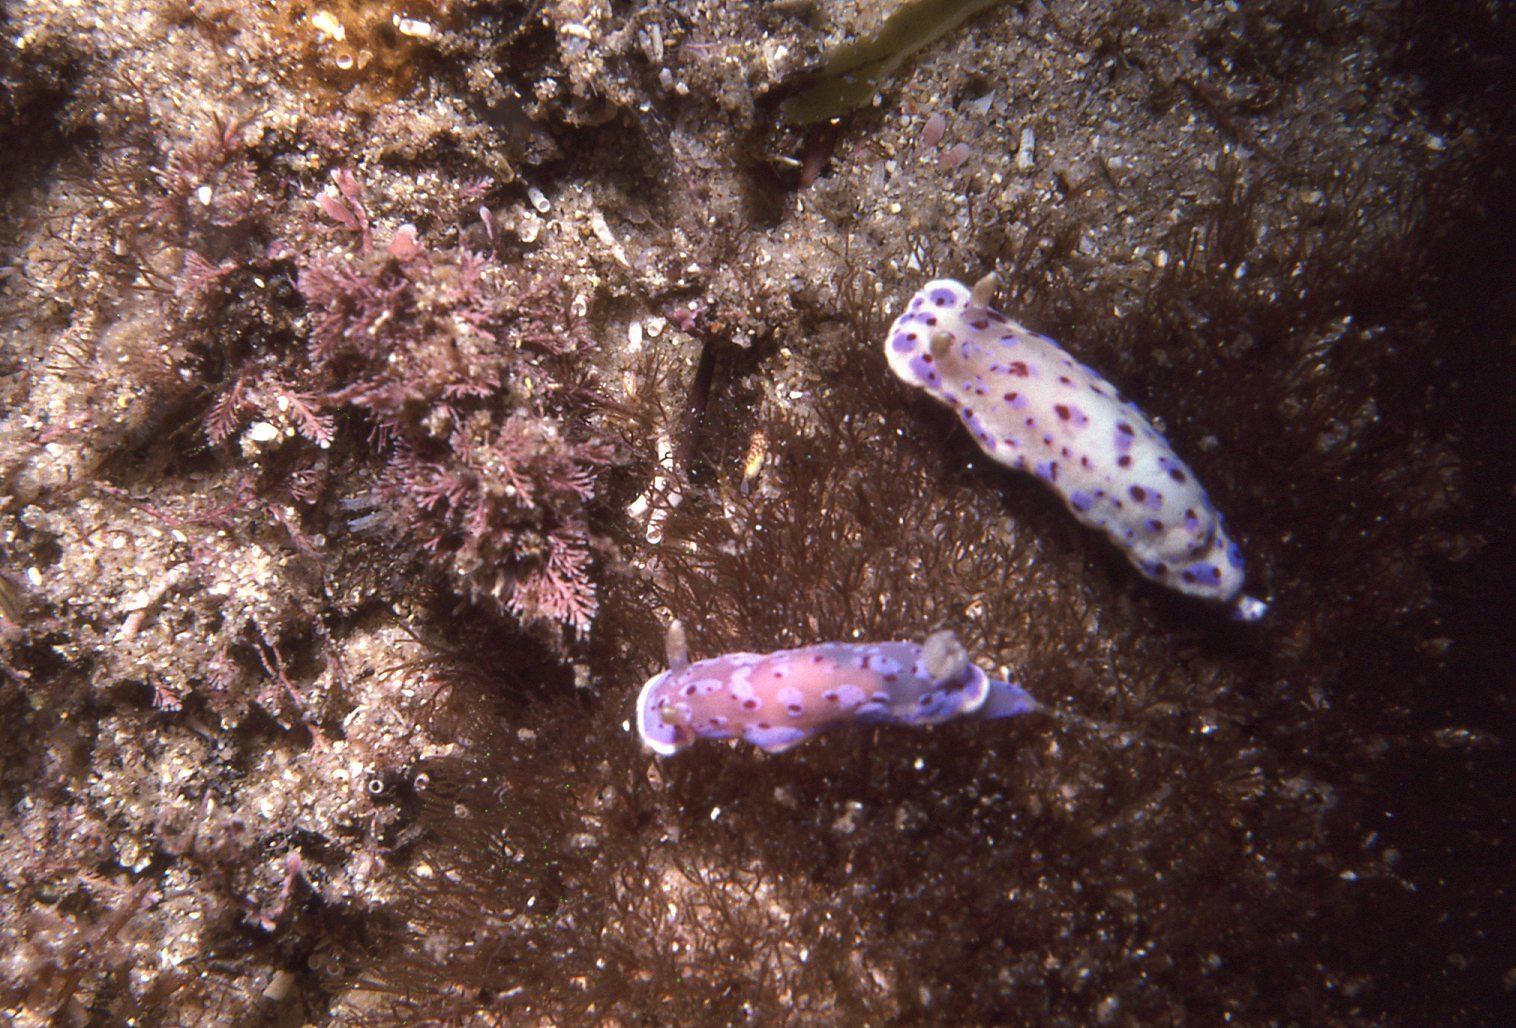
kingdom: Animalia
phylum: Mollusca
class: Gastropoda
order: Nudibranchia
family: Chromodorididae
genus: Goniobranchus
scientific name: Goniobranchus thompsoni
